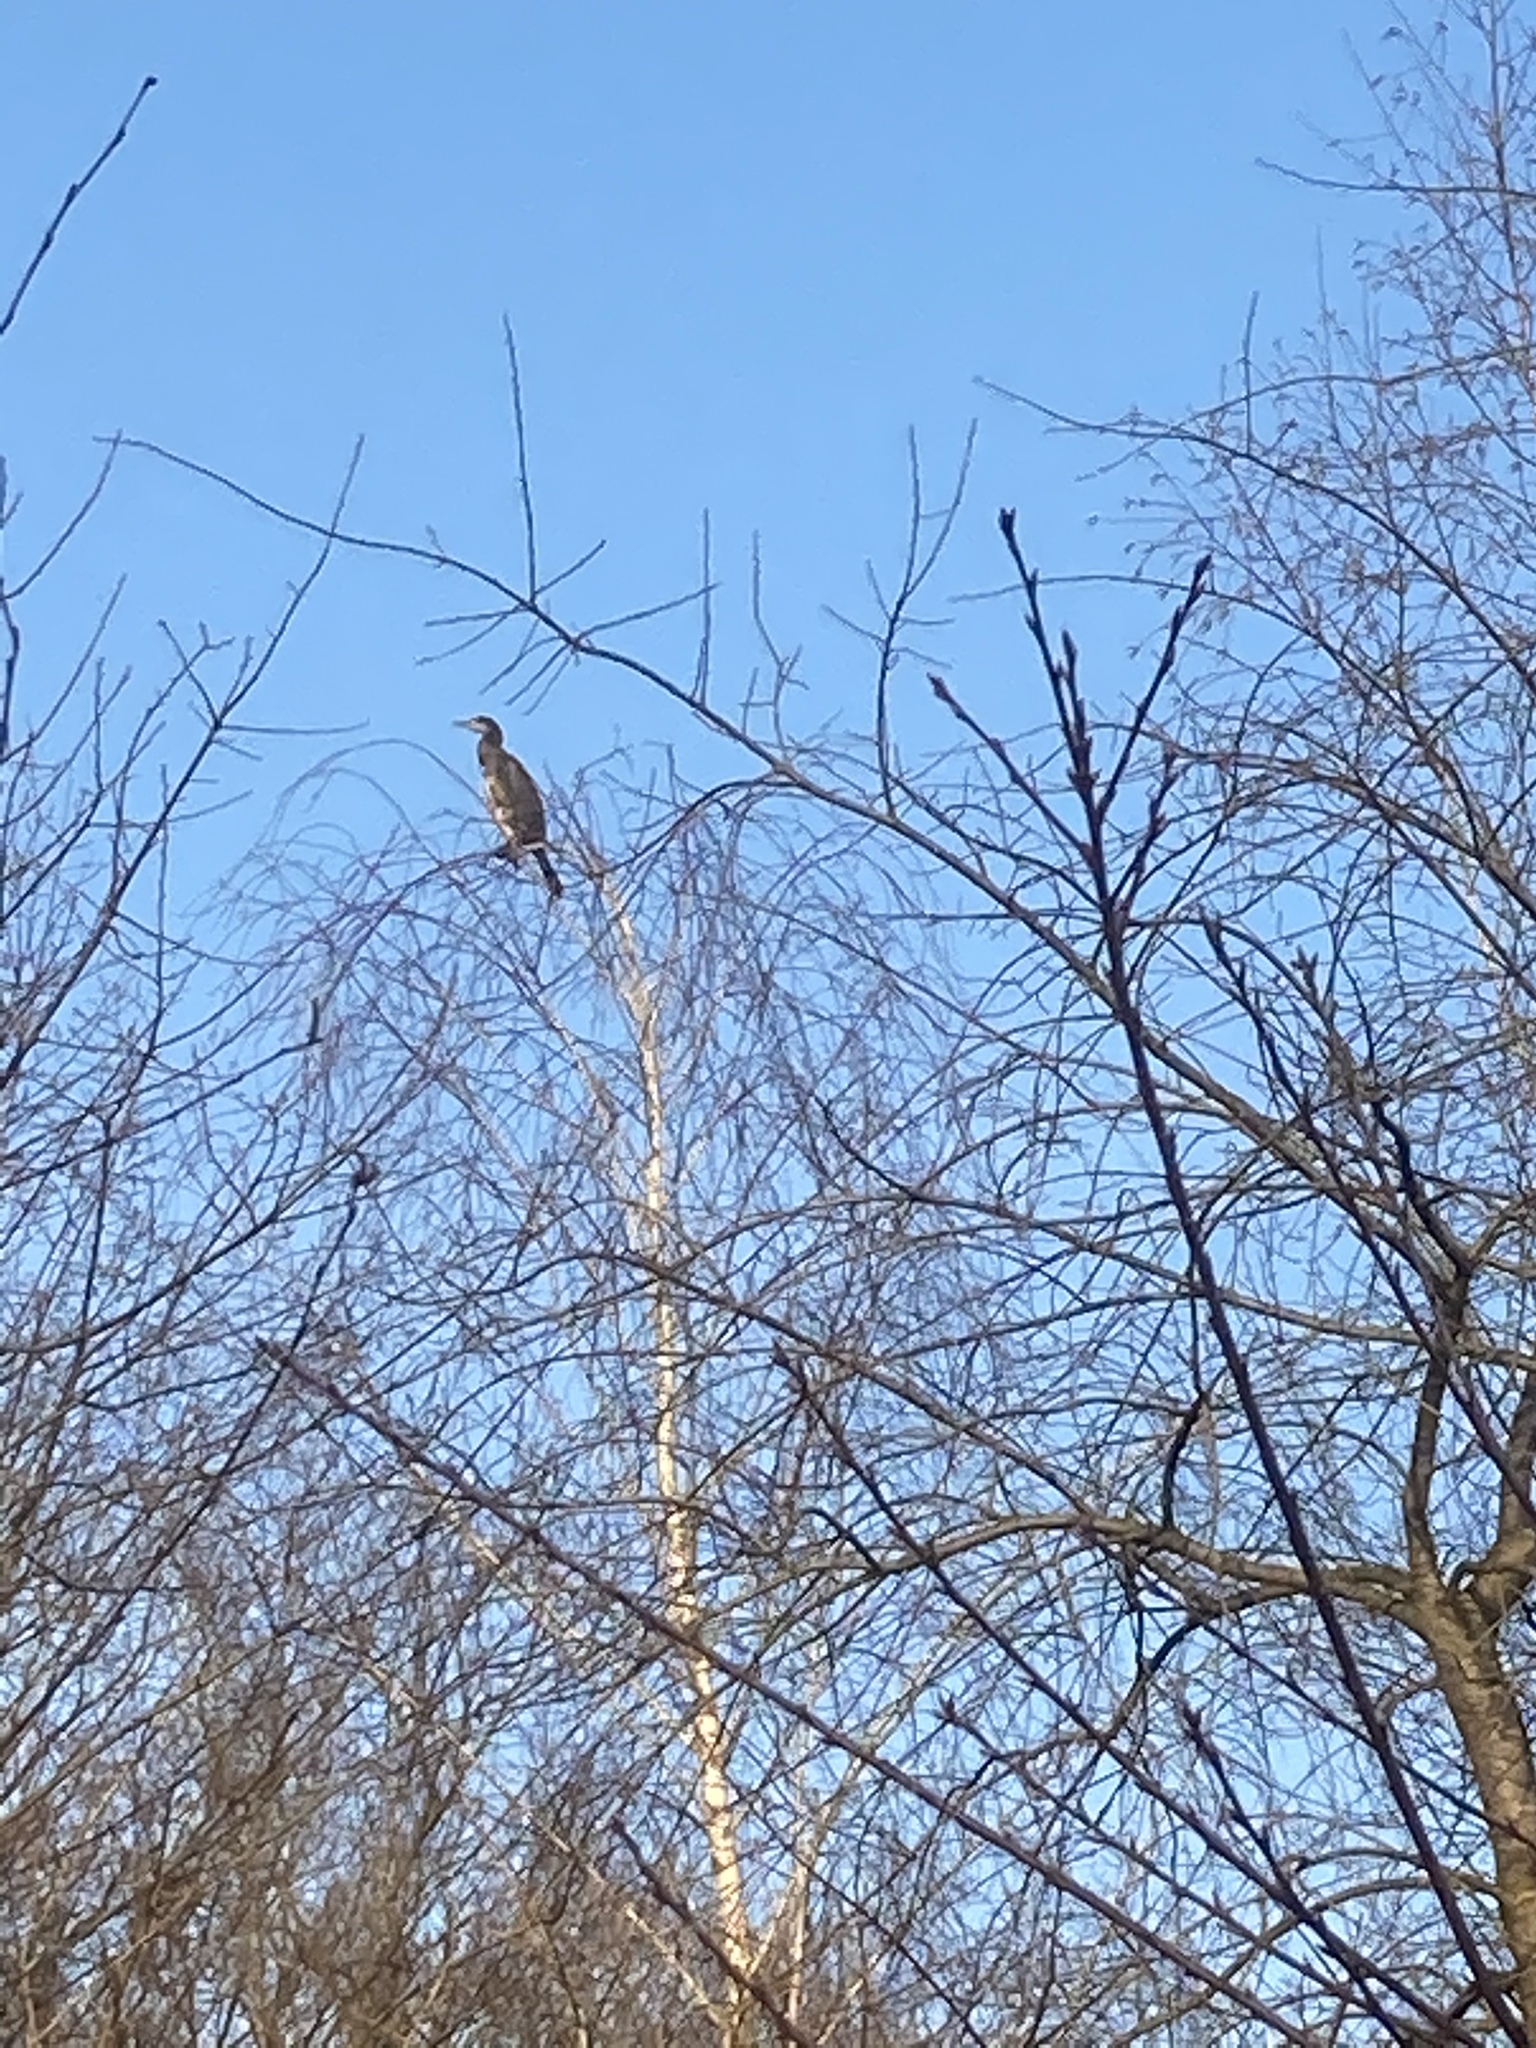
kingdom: Animalia
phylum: Chordata
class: Aves
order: Suliformes
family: Phalacrocoracidae
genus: Phalacrocorax
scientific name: Phalacrocorax carbo
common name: Great cormorant
